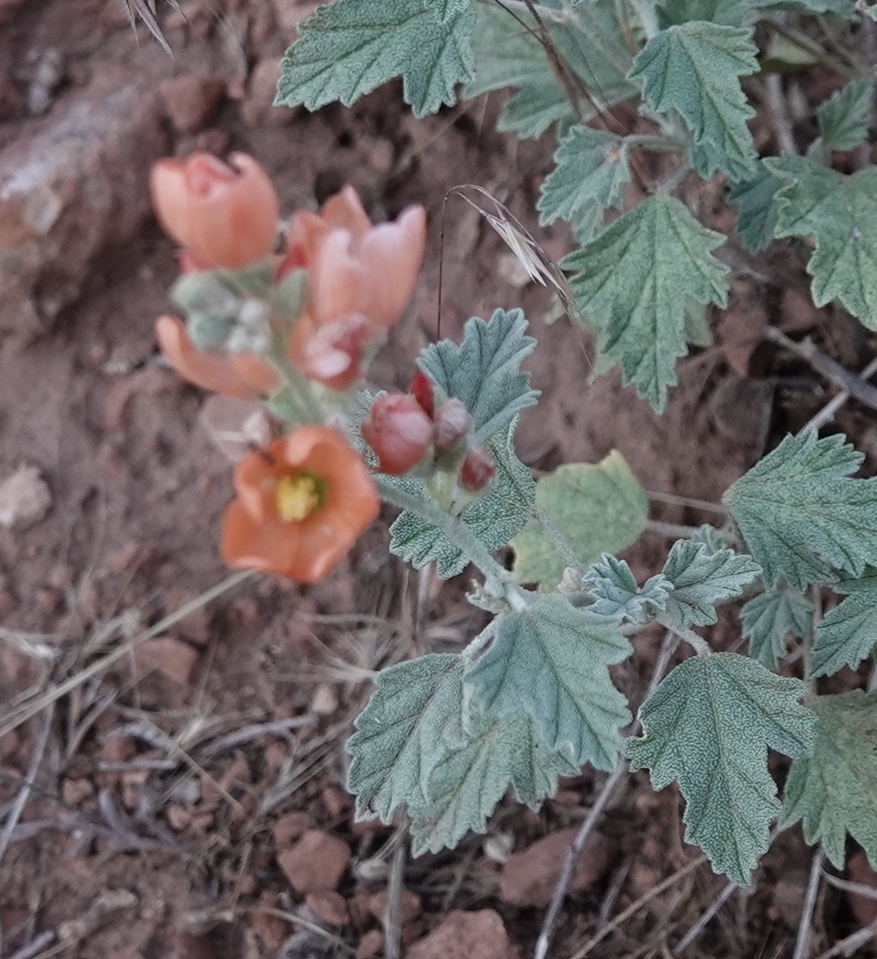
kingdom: Plantae
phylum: Tracheophyta
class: Magnoliopsida
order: Malvales
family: Malvaceae
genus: Sphaeralcea
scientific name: Sphaeralcea ambigua
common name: Apricot globe-mallow
